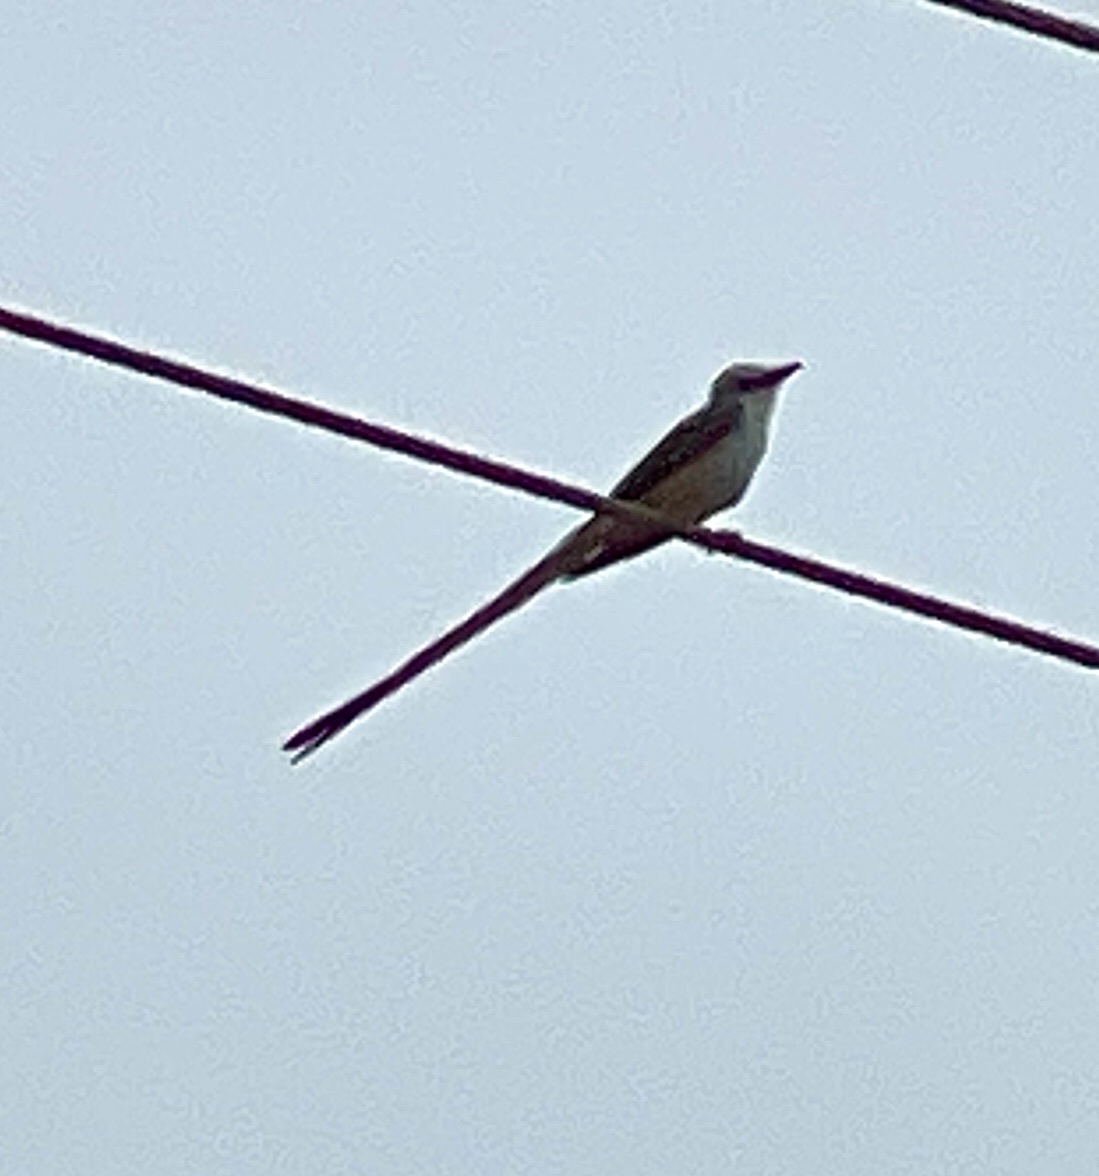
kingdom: Animalia
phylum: Chordata
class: Aves
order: Passeriformes
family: Tyrannidae
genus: Tyrannus
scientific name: Tyrannus forficatus
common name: Scissor-tailed flycatcher
